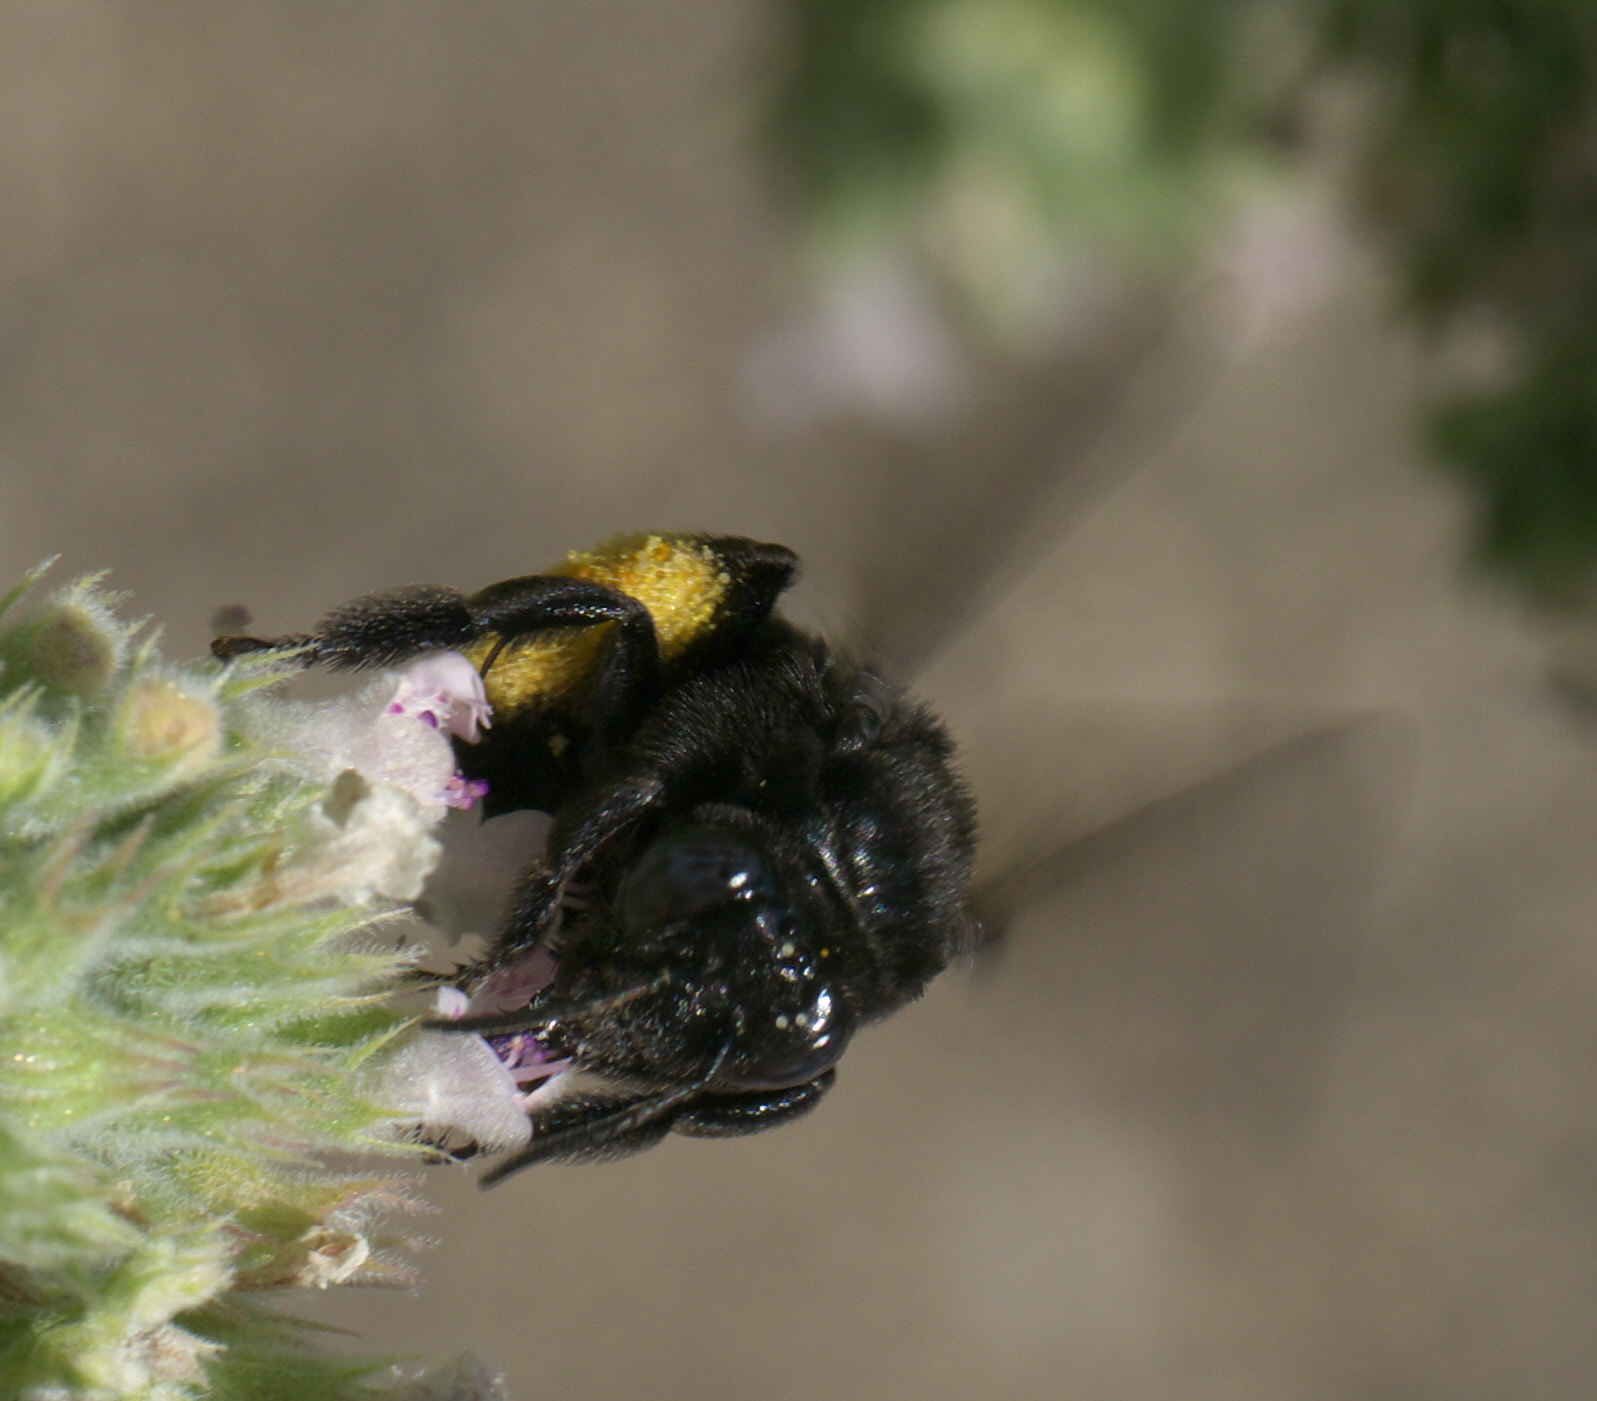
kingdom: Animalia
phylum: Arthropoda
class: Insecta
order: Hymenoptera
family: Apidae
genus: Melissodes
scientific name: Melissodes bimaculatus
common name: Two-spotted long-horned bee
